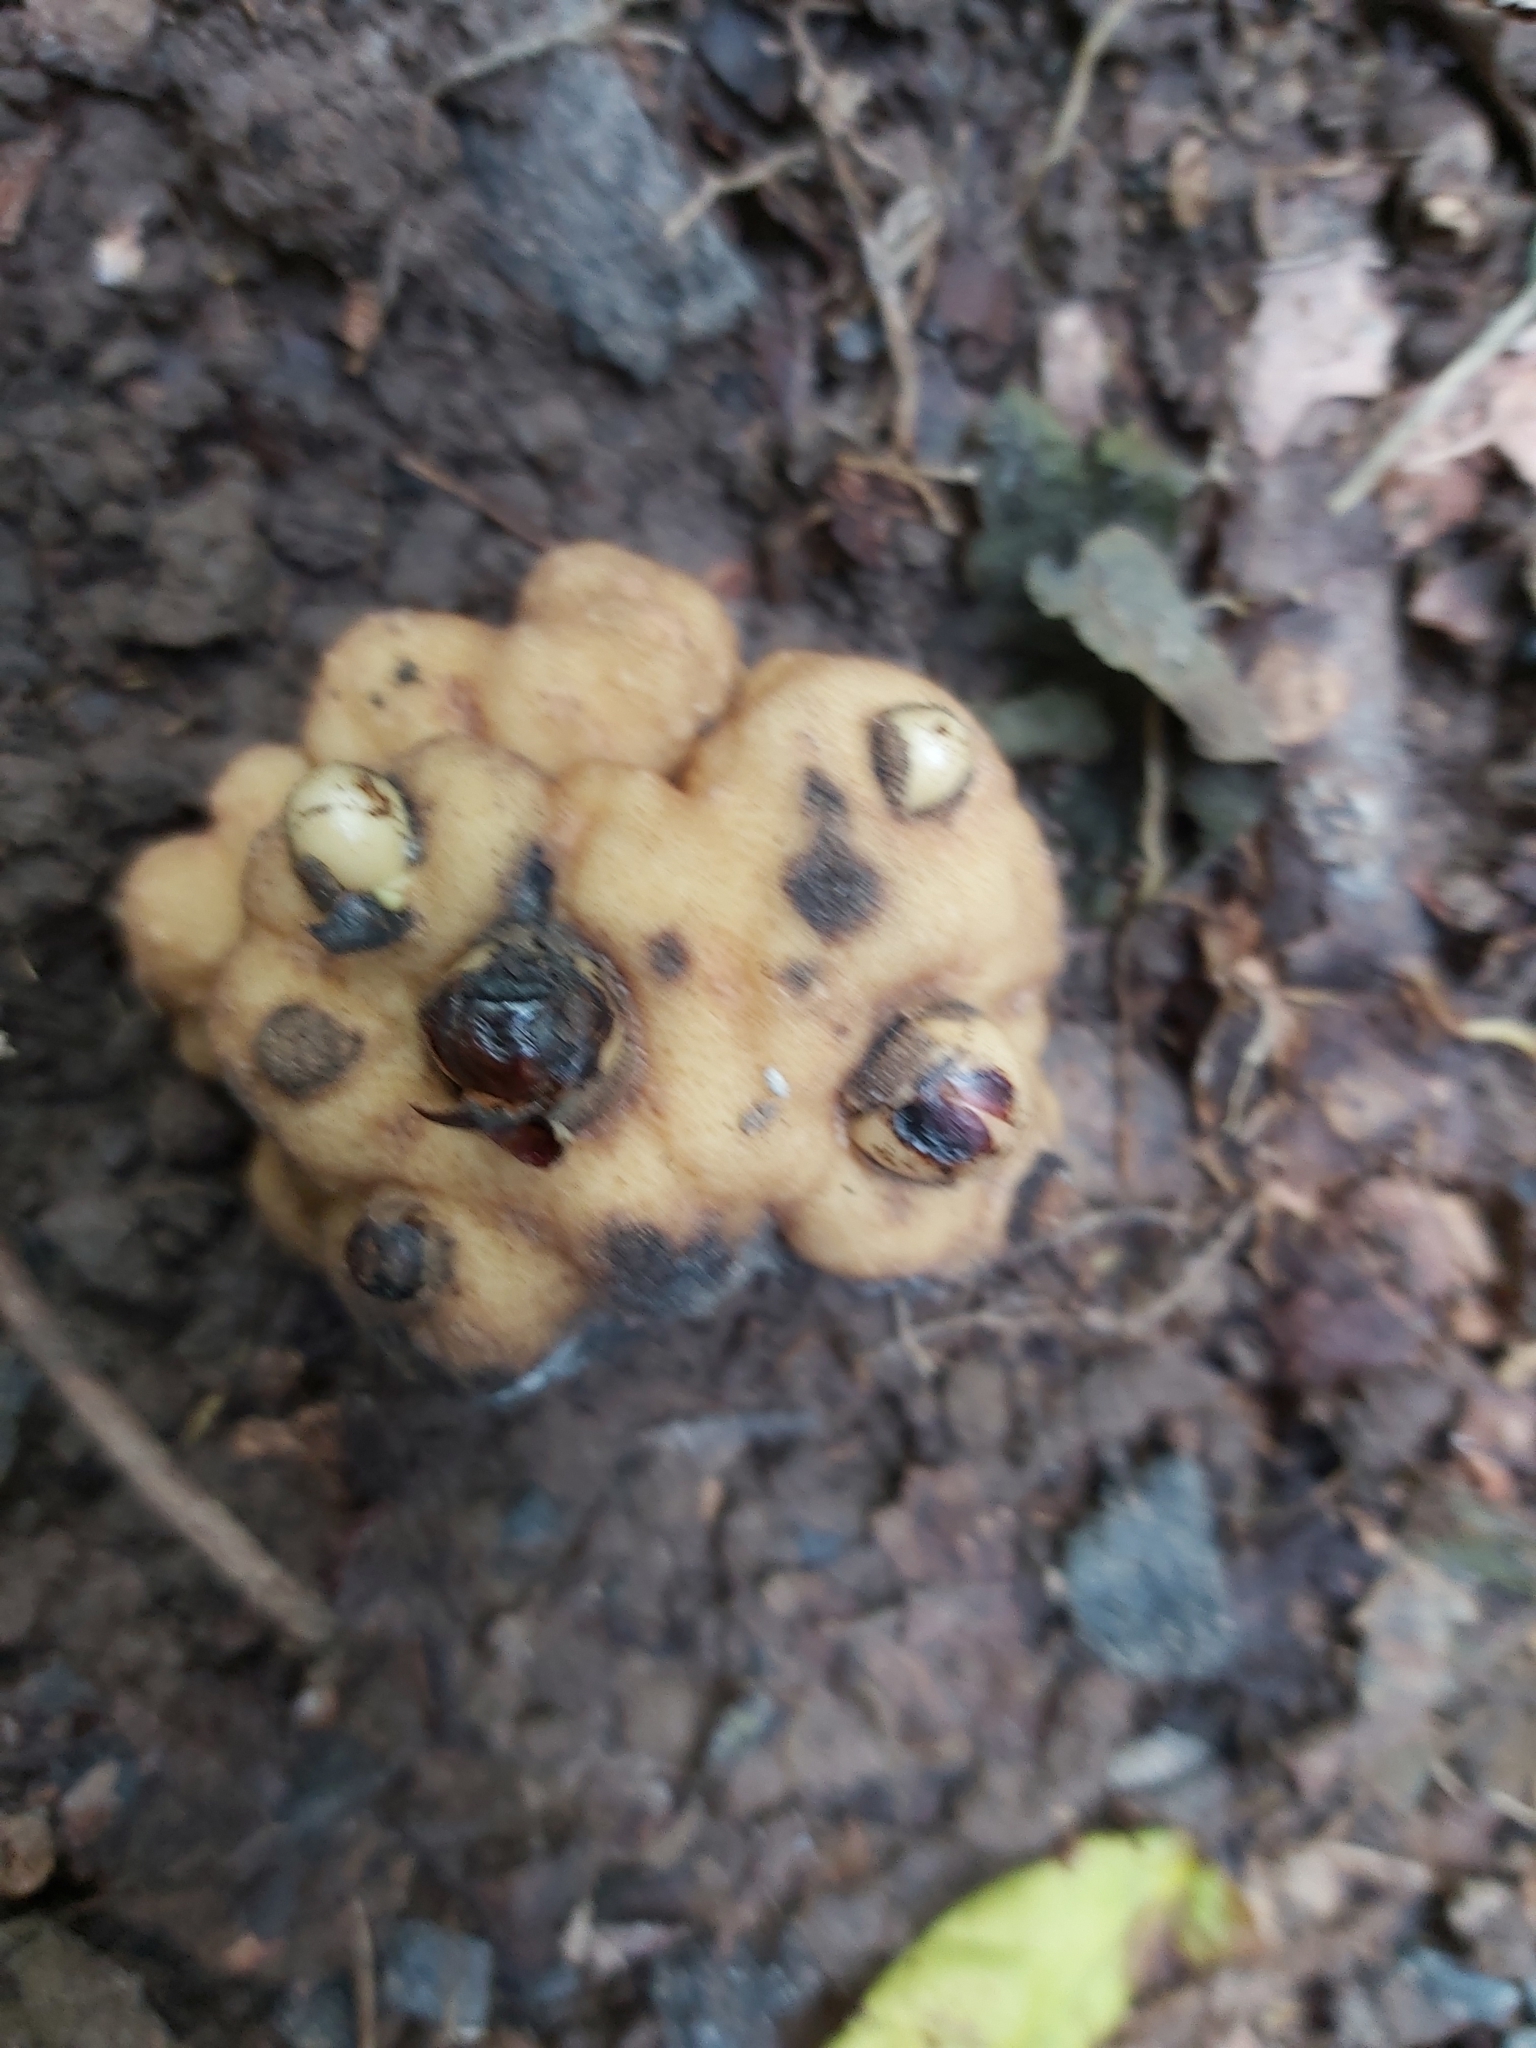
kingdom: Plantae
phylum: Tracheophyta
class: Magnoliopsida
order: Santalales
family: Balanophoraceae
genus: Balanophora
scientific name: Balanophora fungosa
